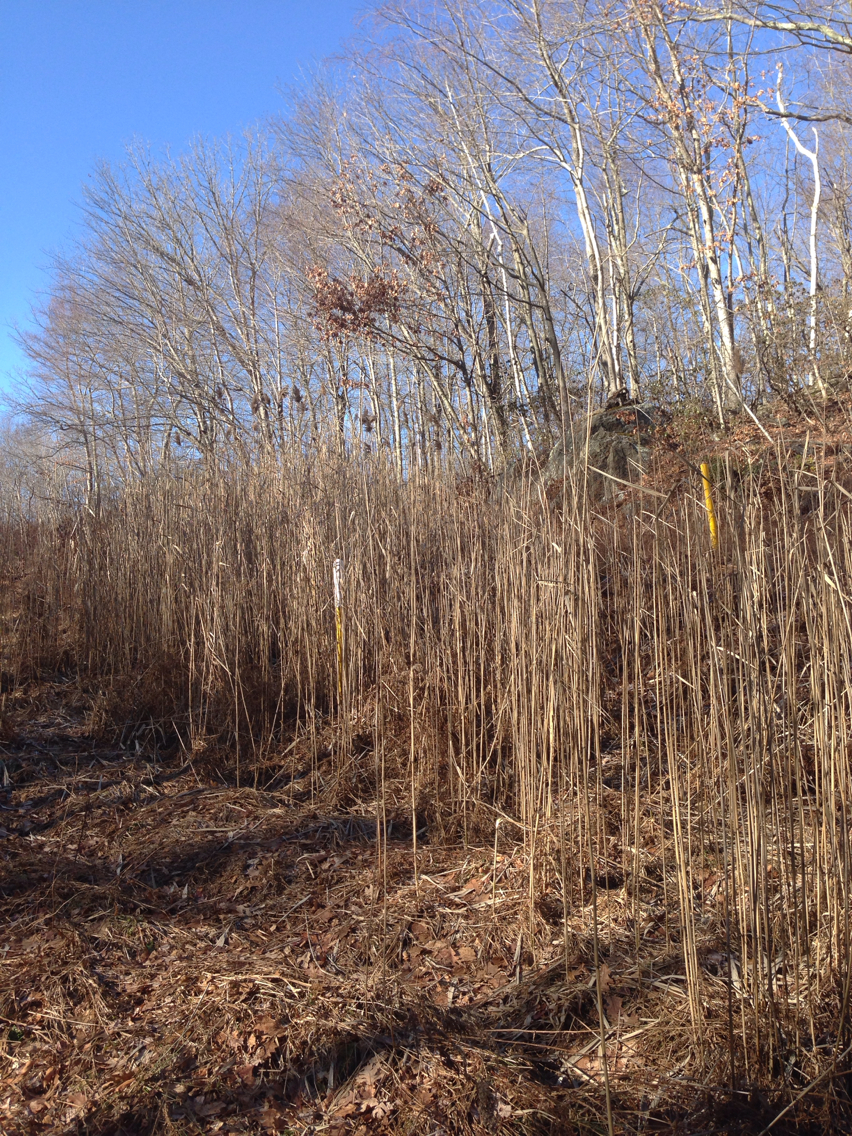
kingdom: Plantae
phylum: Tracheophyta
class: Liliopsida
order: Poales
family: Poaceae
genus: Phragmites
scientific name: Phragmites australis
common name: Common reed
